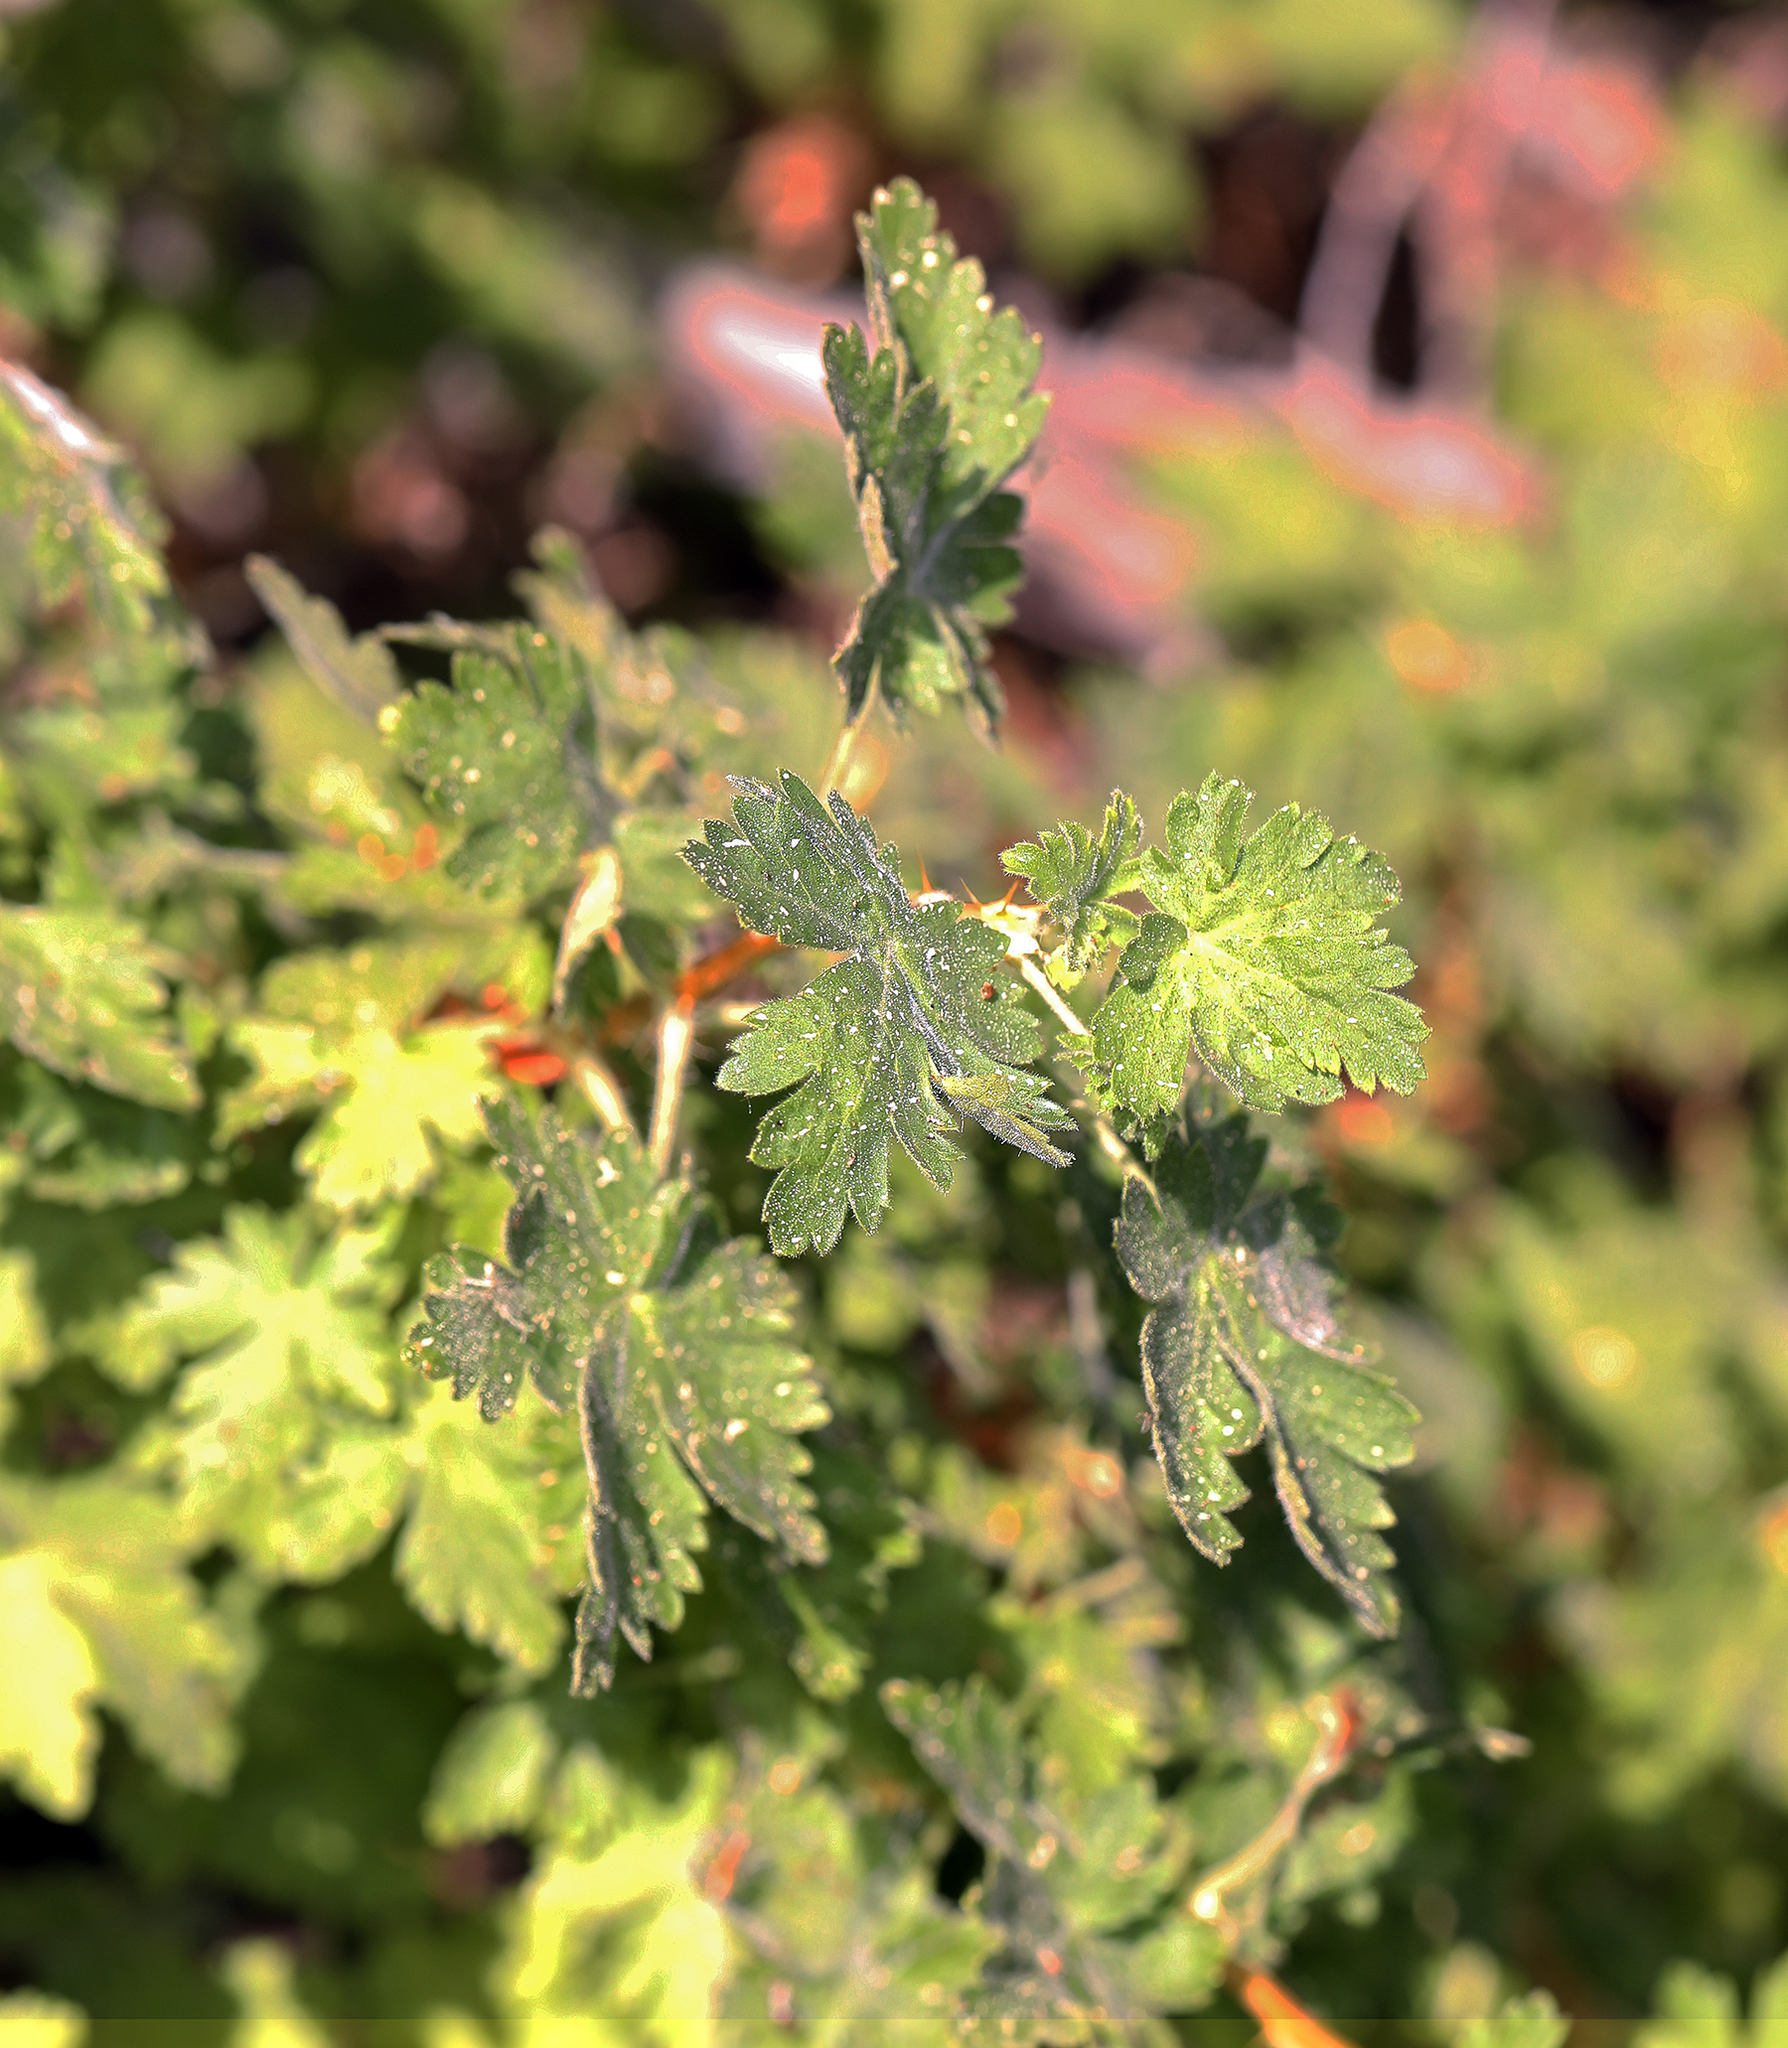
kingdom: Plantae
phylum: Tracheophyta
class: Magnoliopsida
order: Saxifragales
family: Grossulariaceae
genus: Ribes
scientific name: Ribes montigenum
